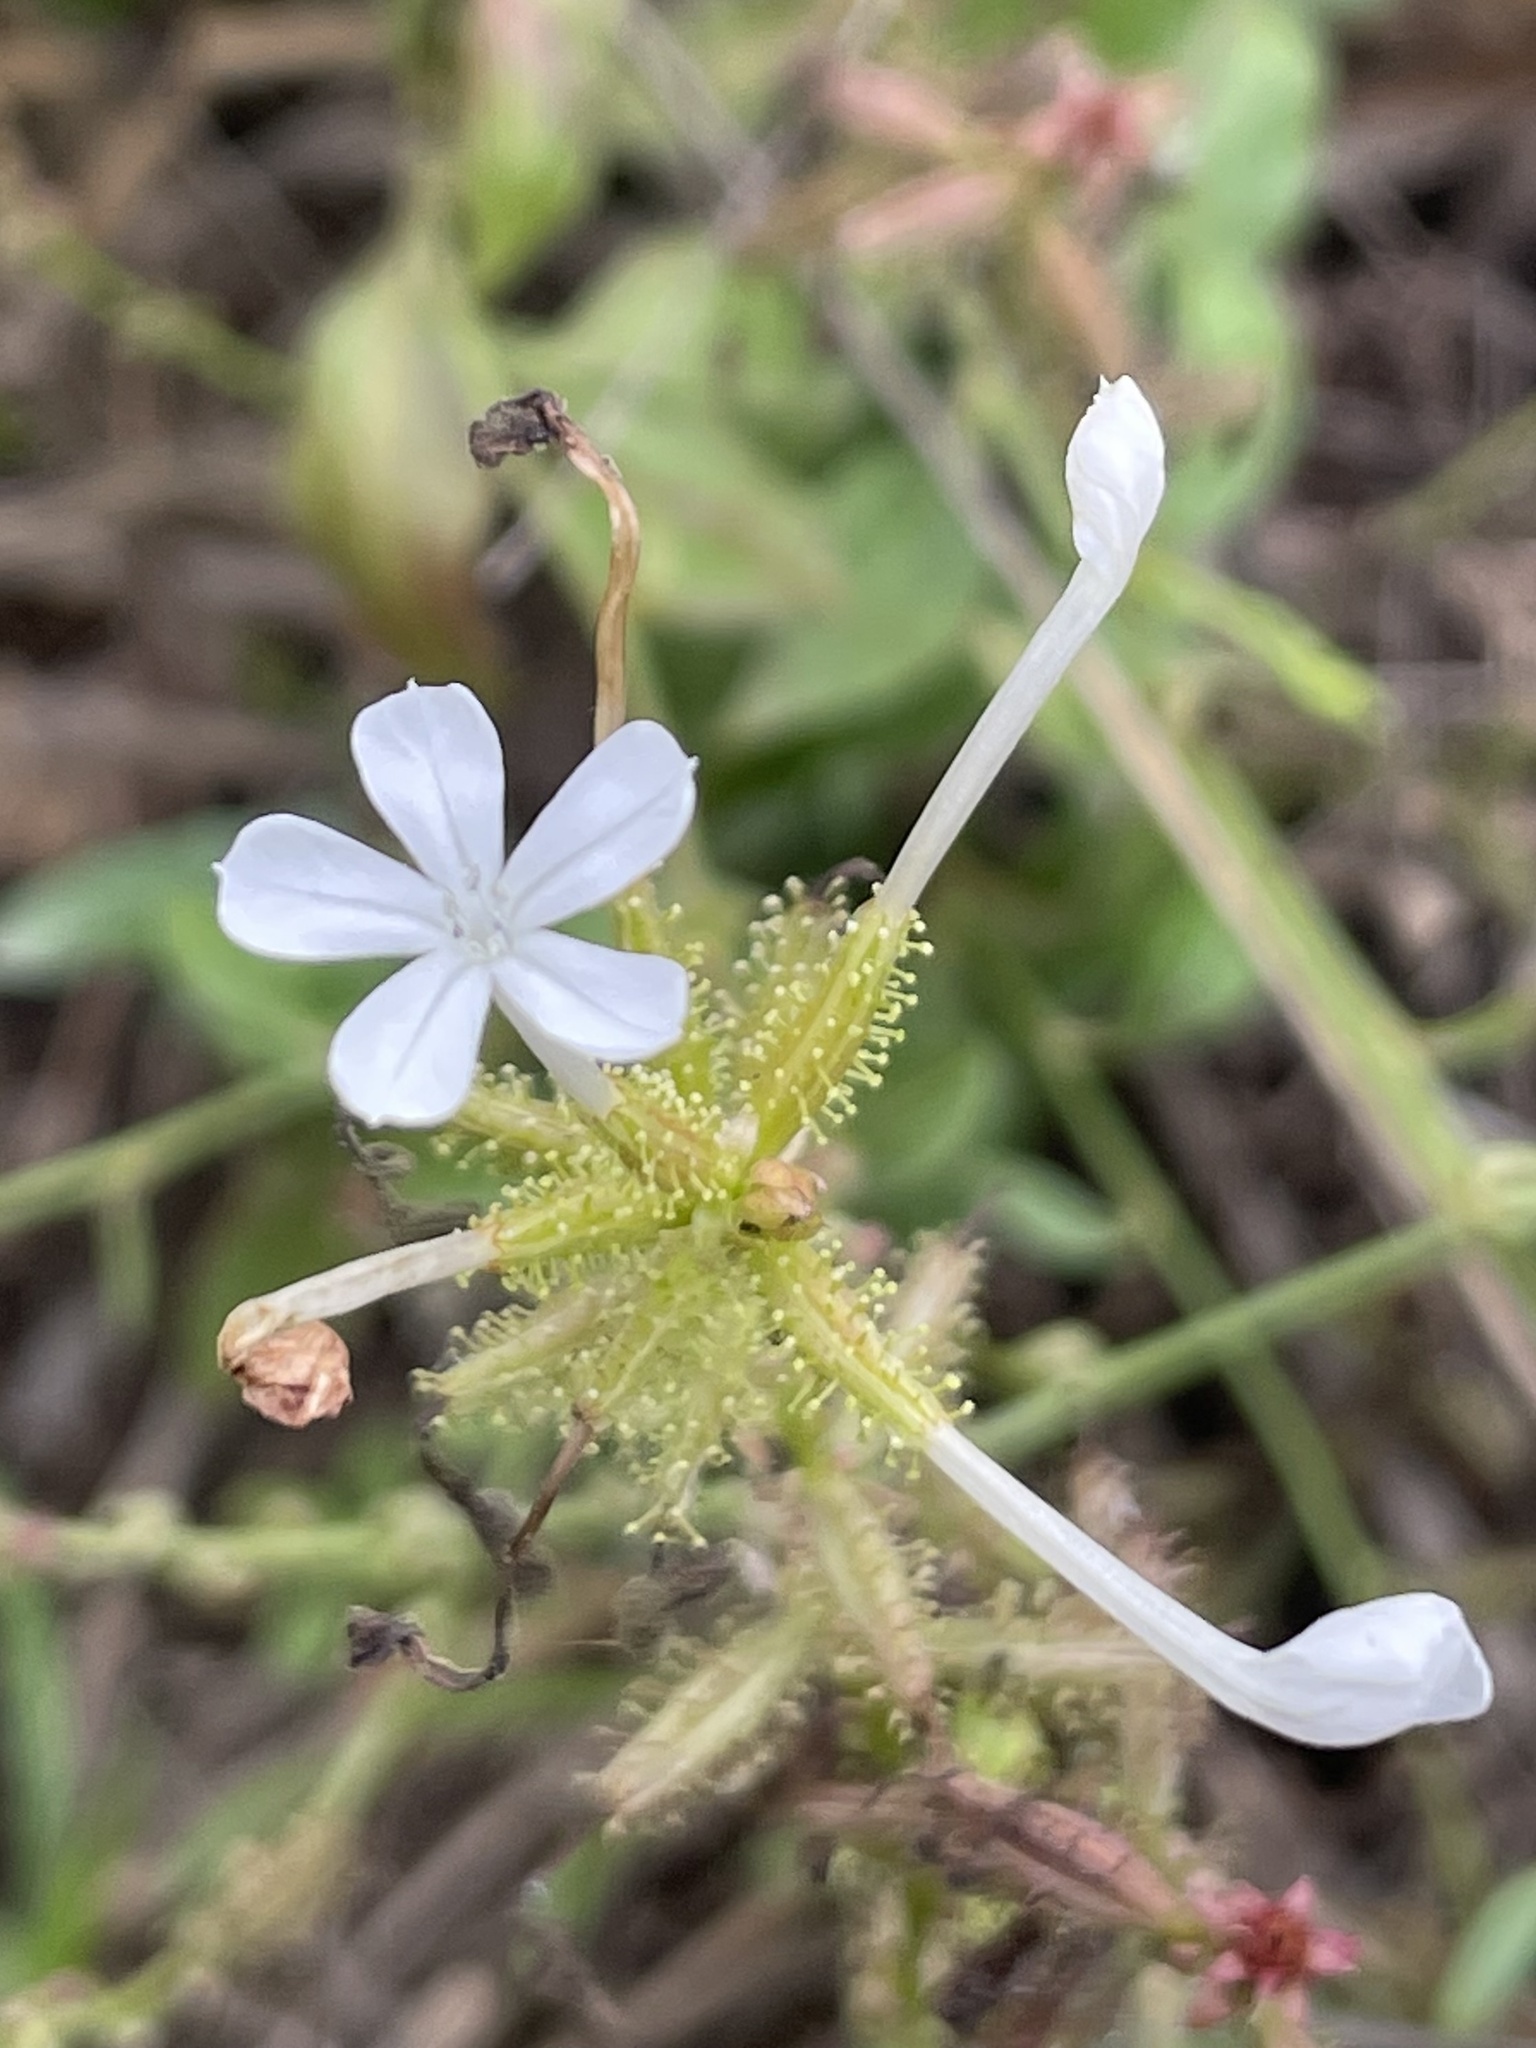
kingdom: Plantae
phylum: Tracheophyta
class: Magnoliopsida
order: Caryophyllales
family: Plumbaginaceae
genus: Plumbago
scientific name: Plumbago zeylanica
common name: Doctorbush
